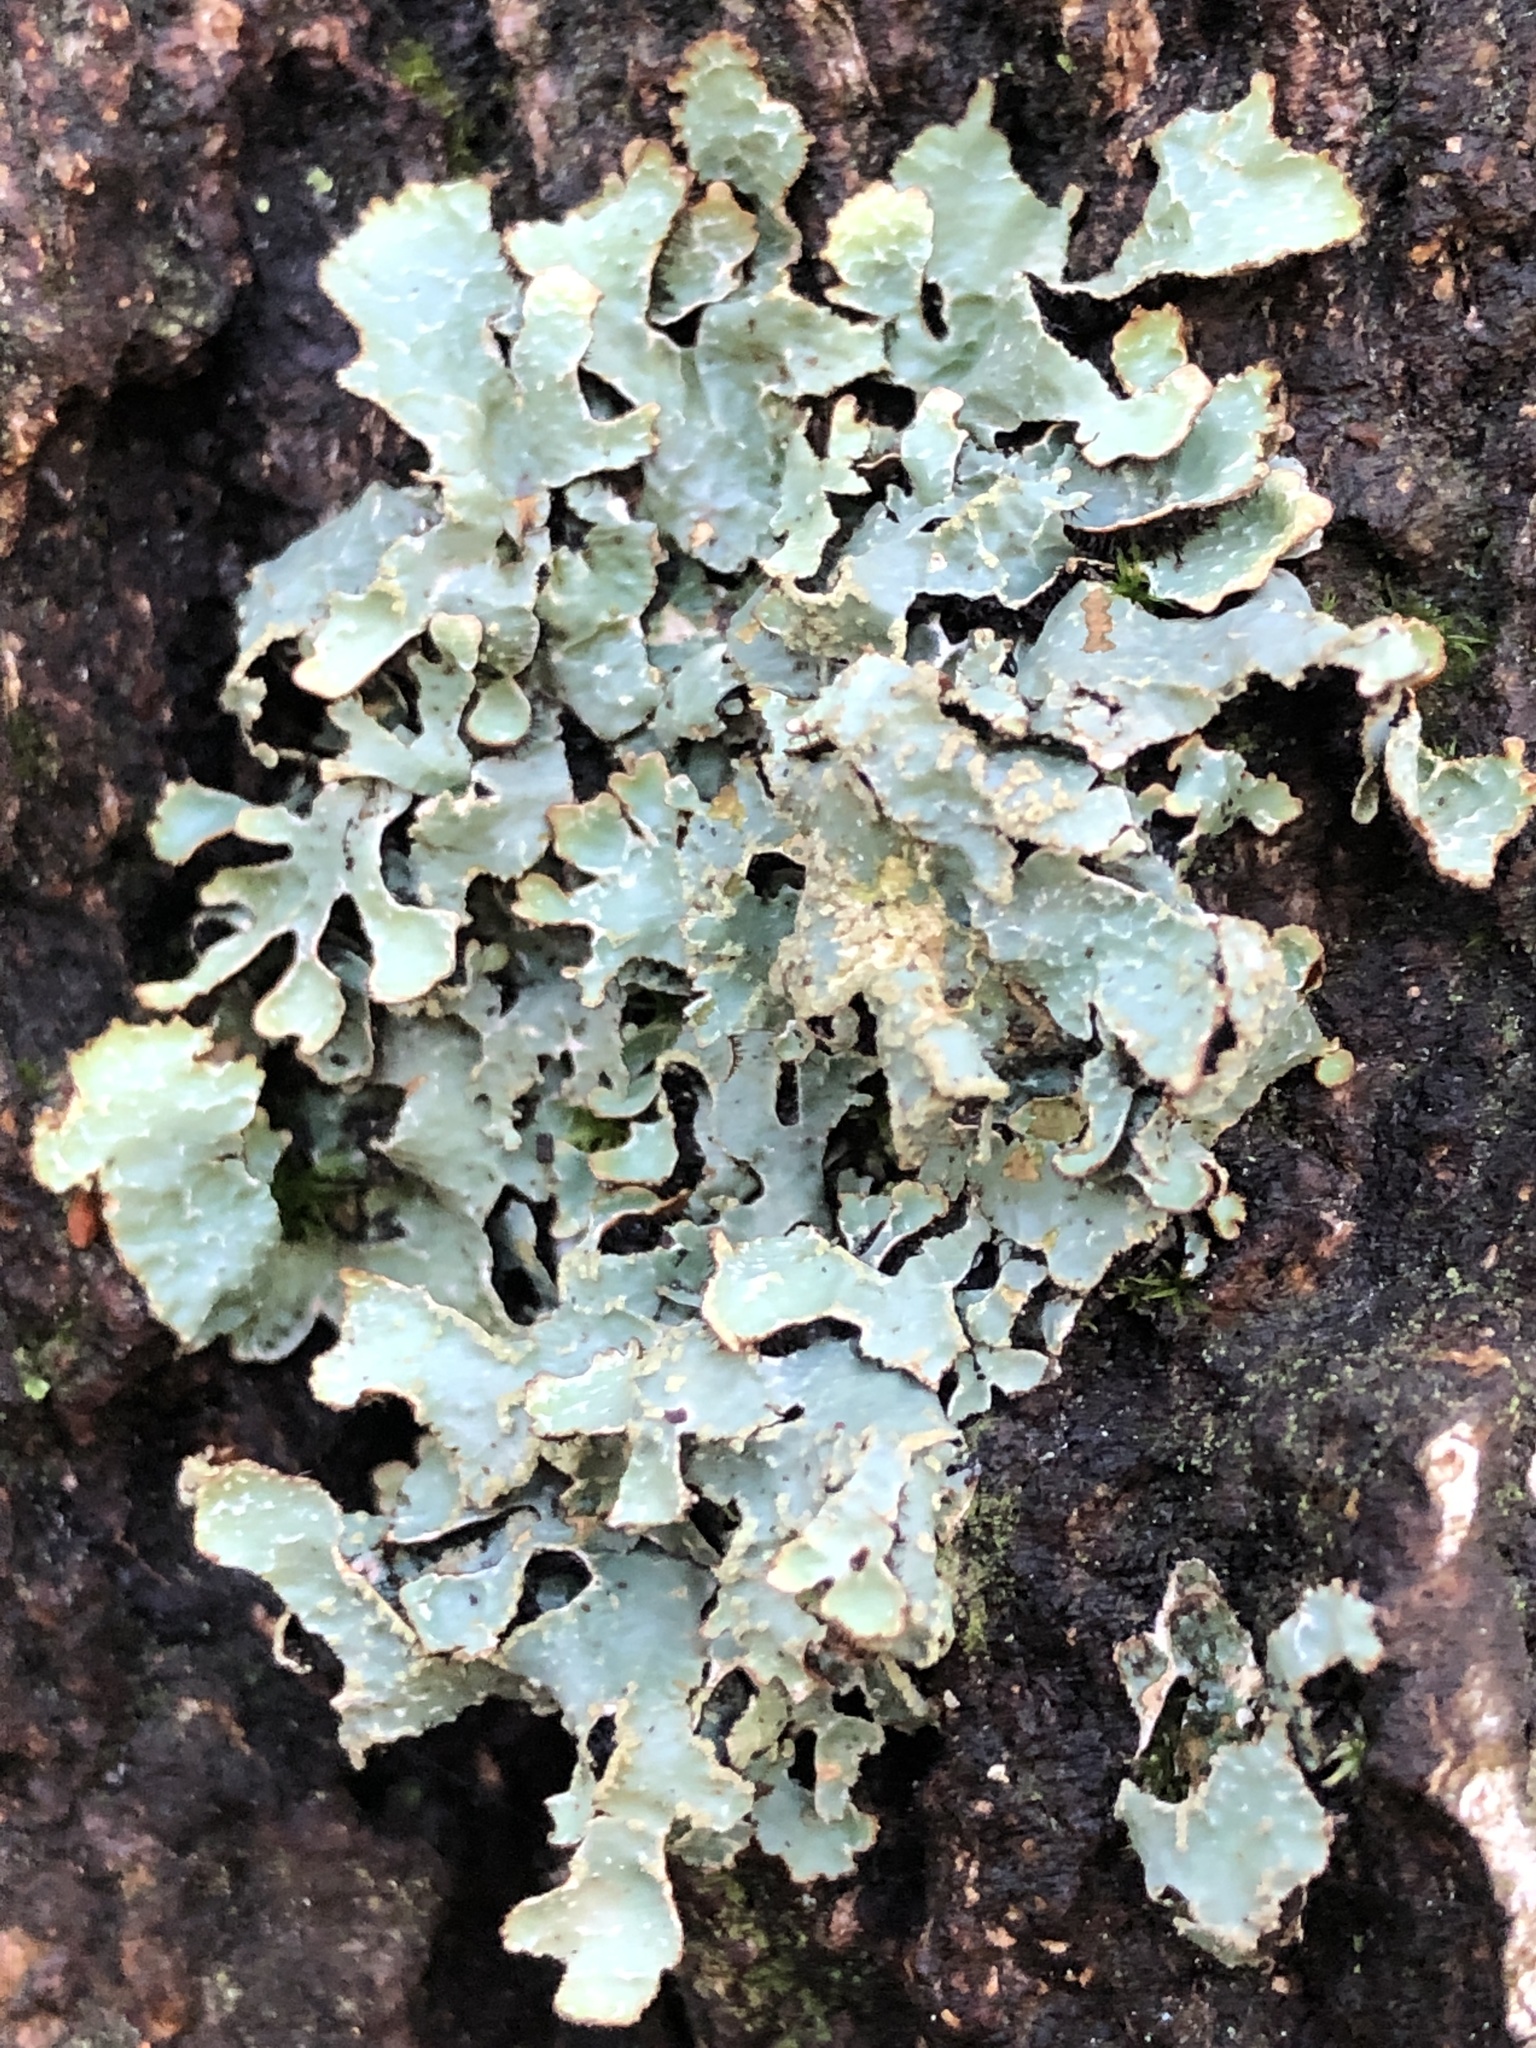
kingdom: Fungi
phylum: Ascomycota
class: Lecanoromycetes
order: Lecanorales
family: Parmeliaceae
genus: Parmelia
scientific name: Parmelia sulcata
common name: Netted shield lichen
